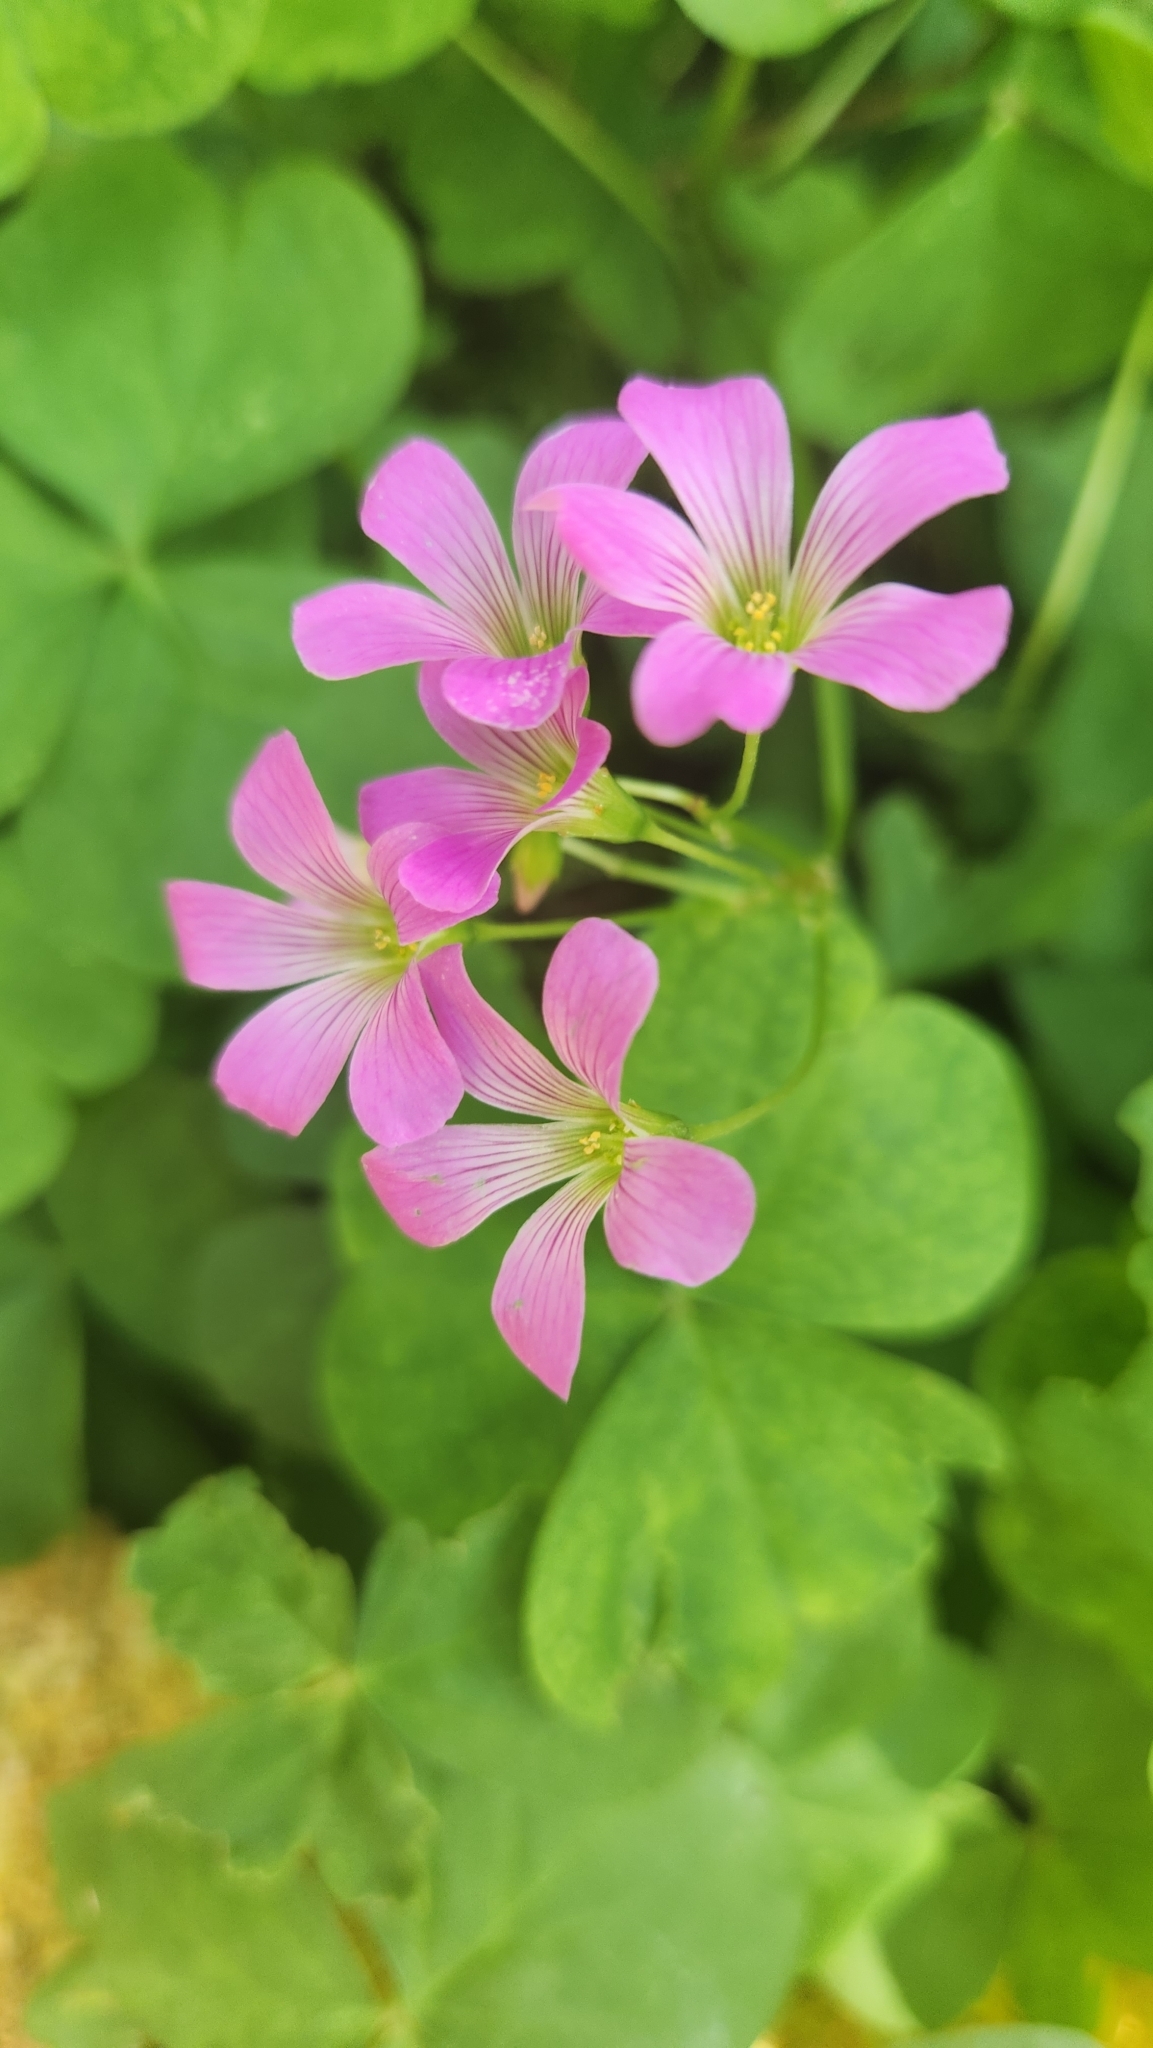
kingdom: Plantae
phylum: Tracheophyta
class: Magnoliopsida
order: Oxalidales
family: Oxalidaceae
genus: Oxalis
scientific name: Oxalis debilis
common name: Large-flowered pink-sorrel
